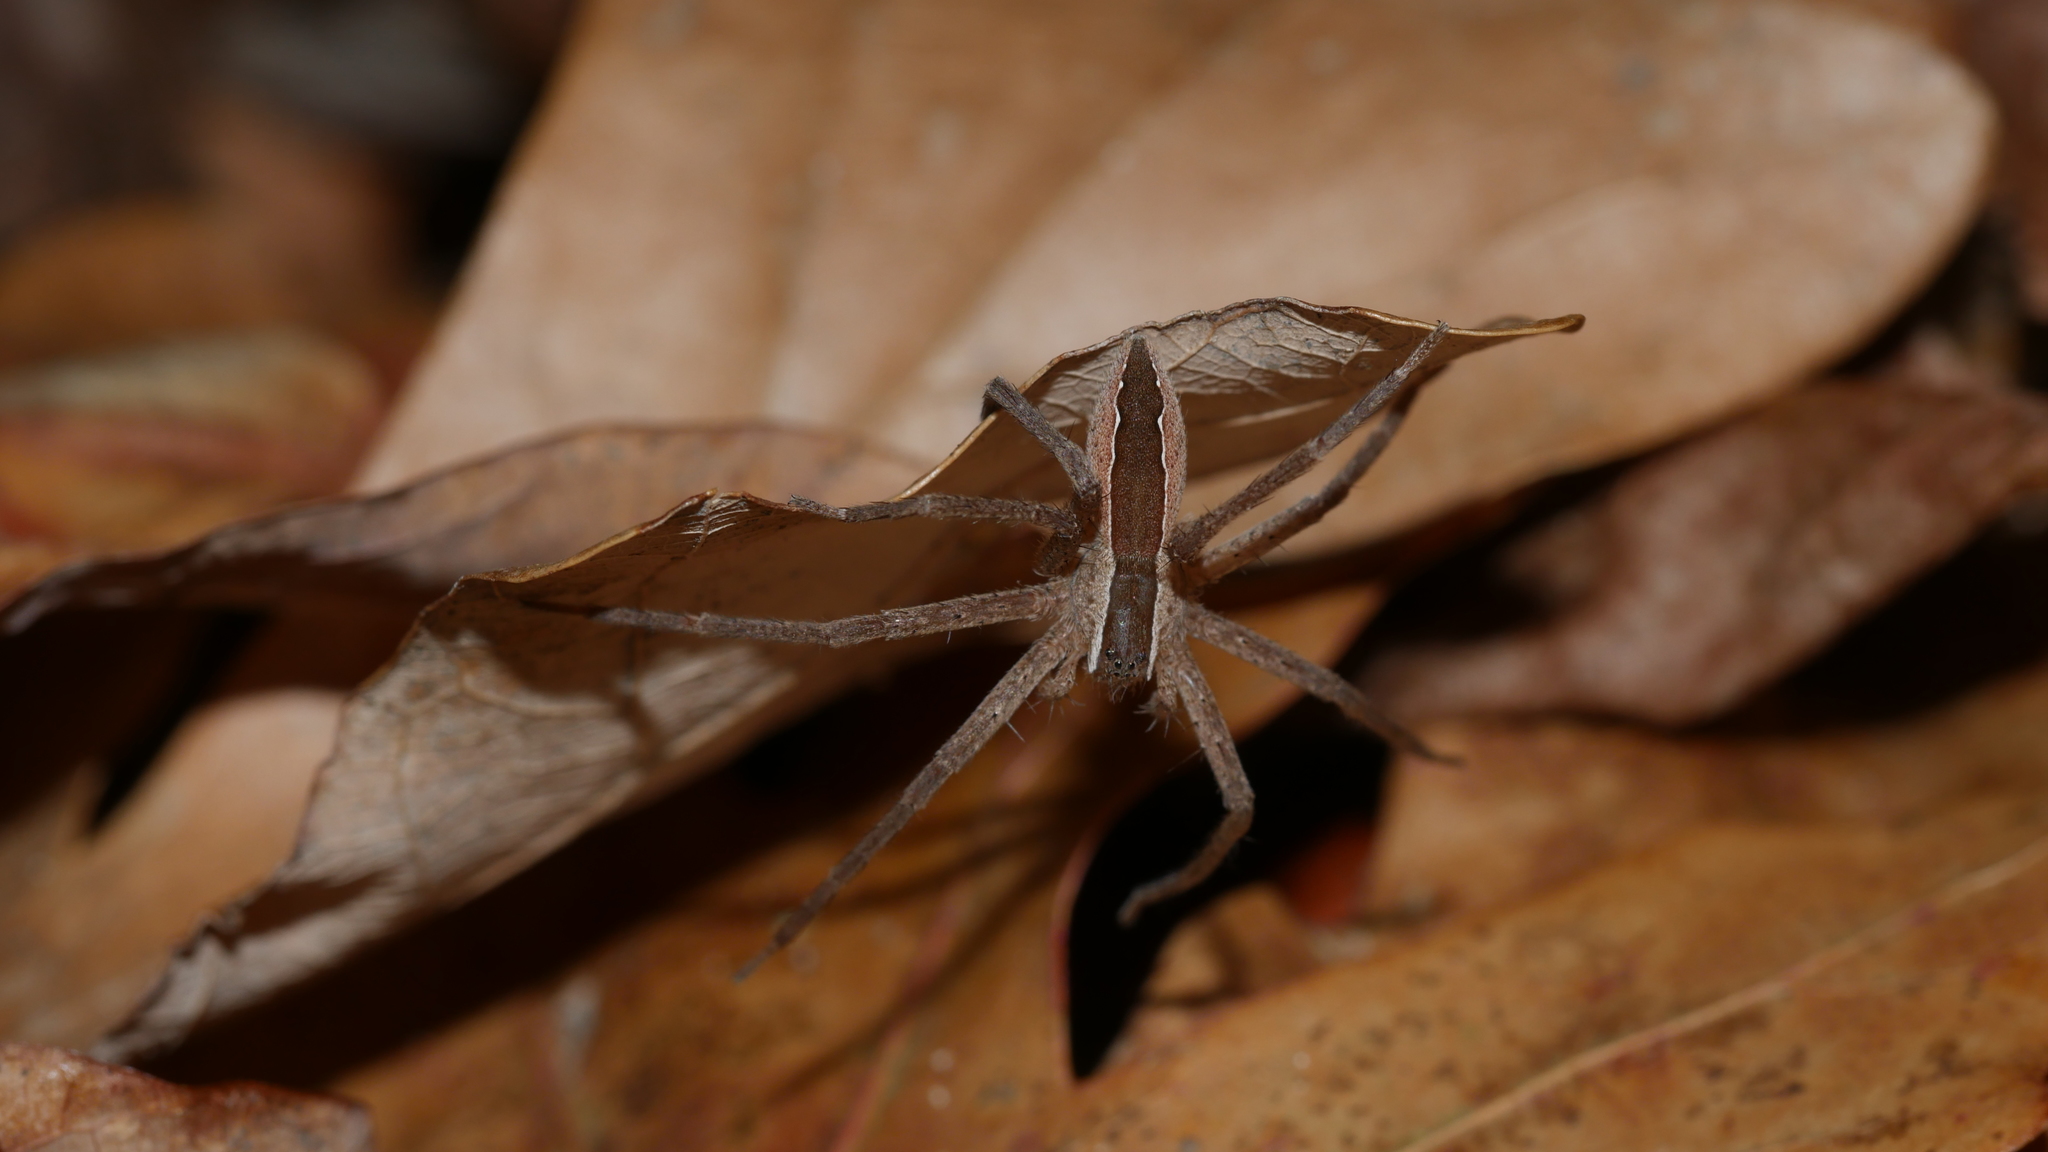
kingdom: Animalia
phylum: Arthropoda
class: Arachnida
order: Araneae
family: Pisauridae
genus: Pisaurina
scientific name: Pisaurina mira
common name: American nursery web spider
